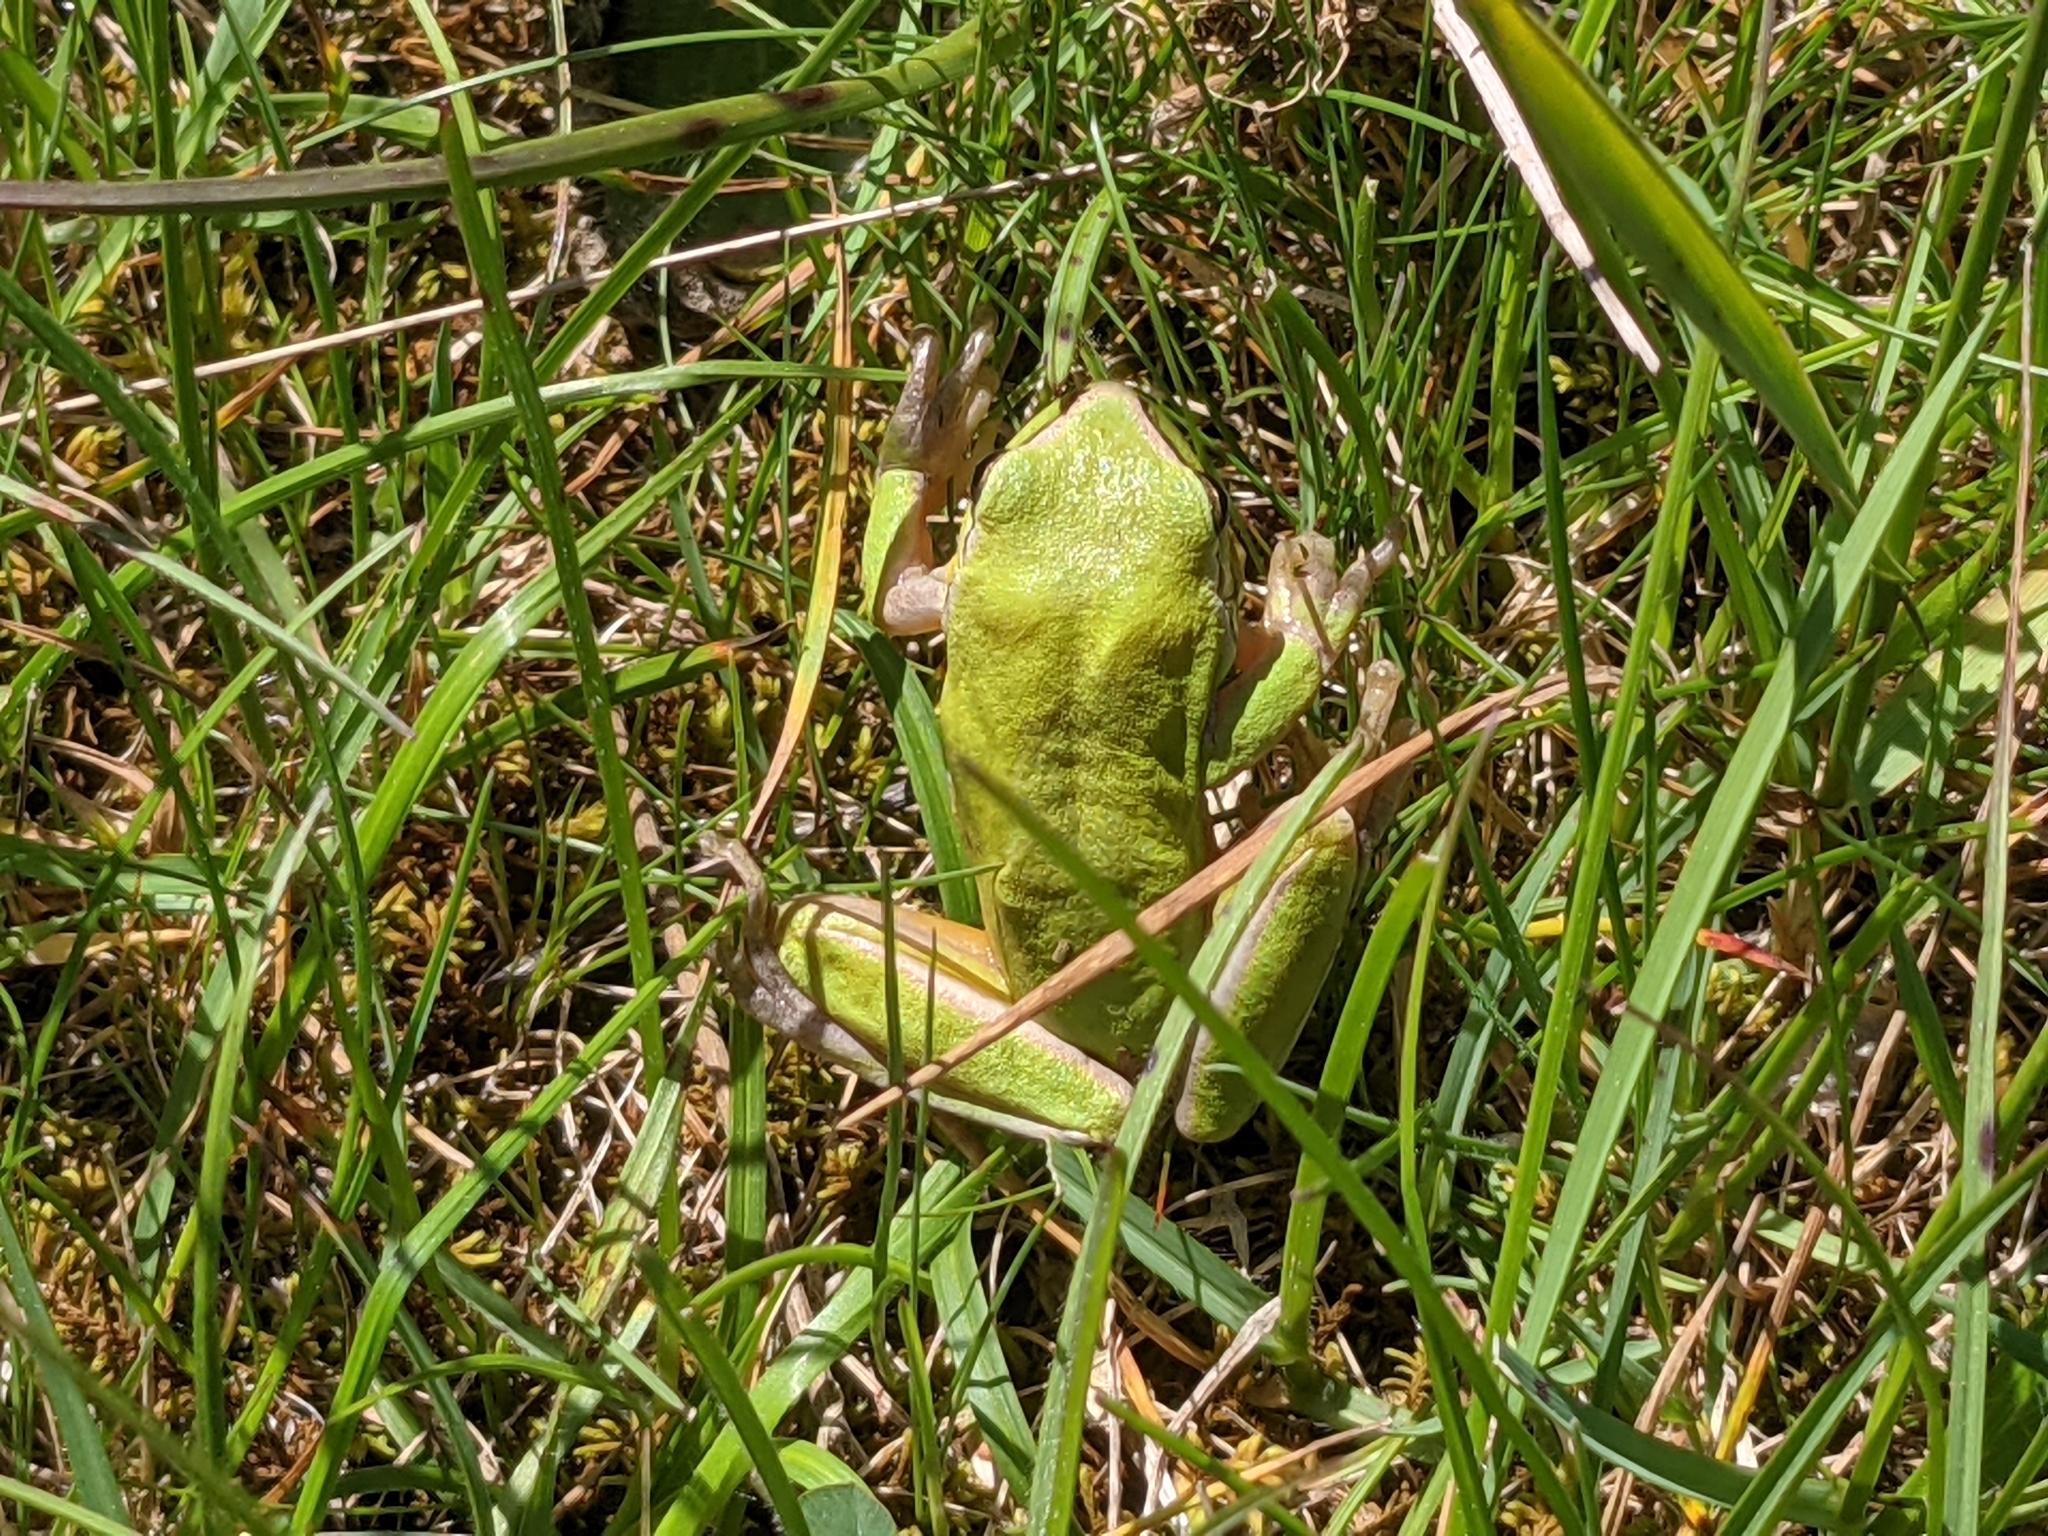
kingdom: Animalia
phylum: Chordata
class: Amphibia
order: Anura
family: Hylidae
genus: Hyla
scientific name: Hyla meridionalis
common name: Stripeless tree frog
